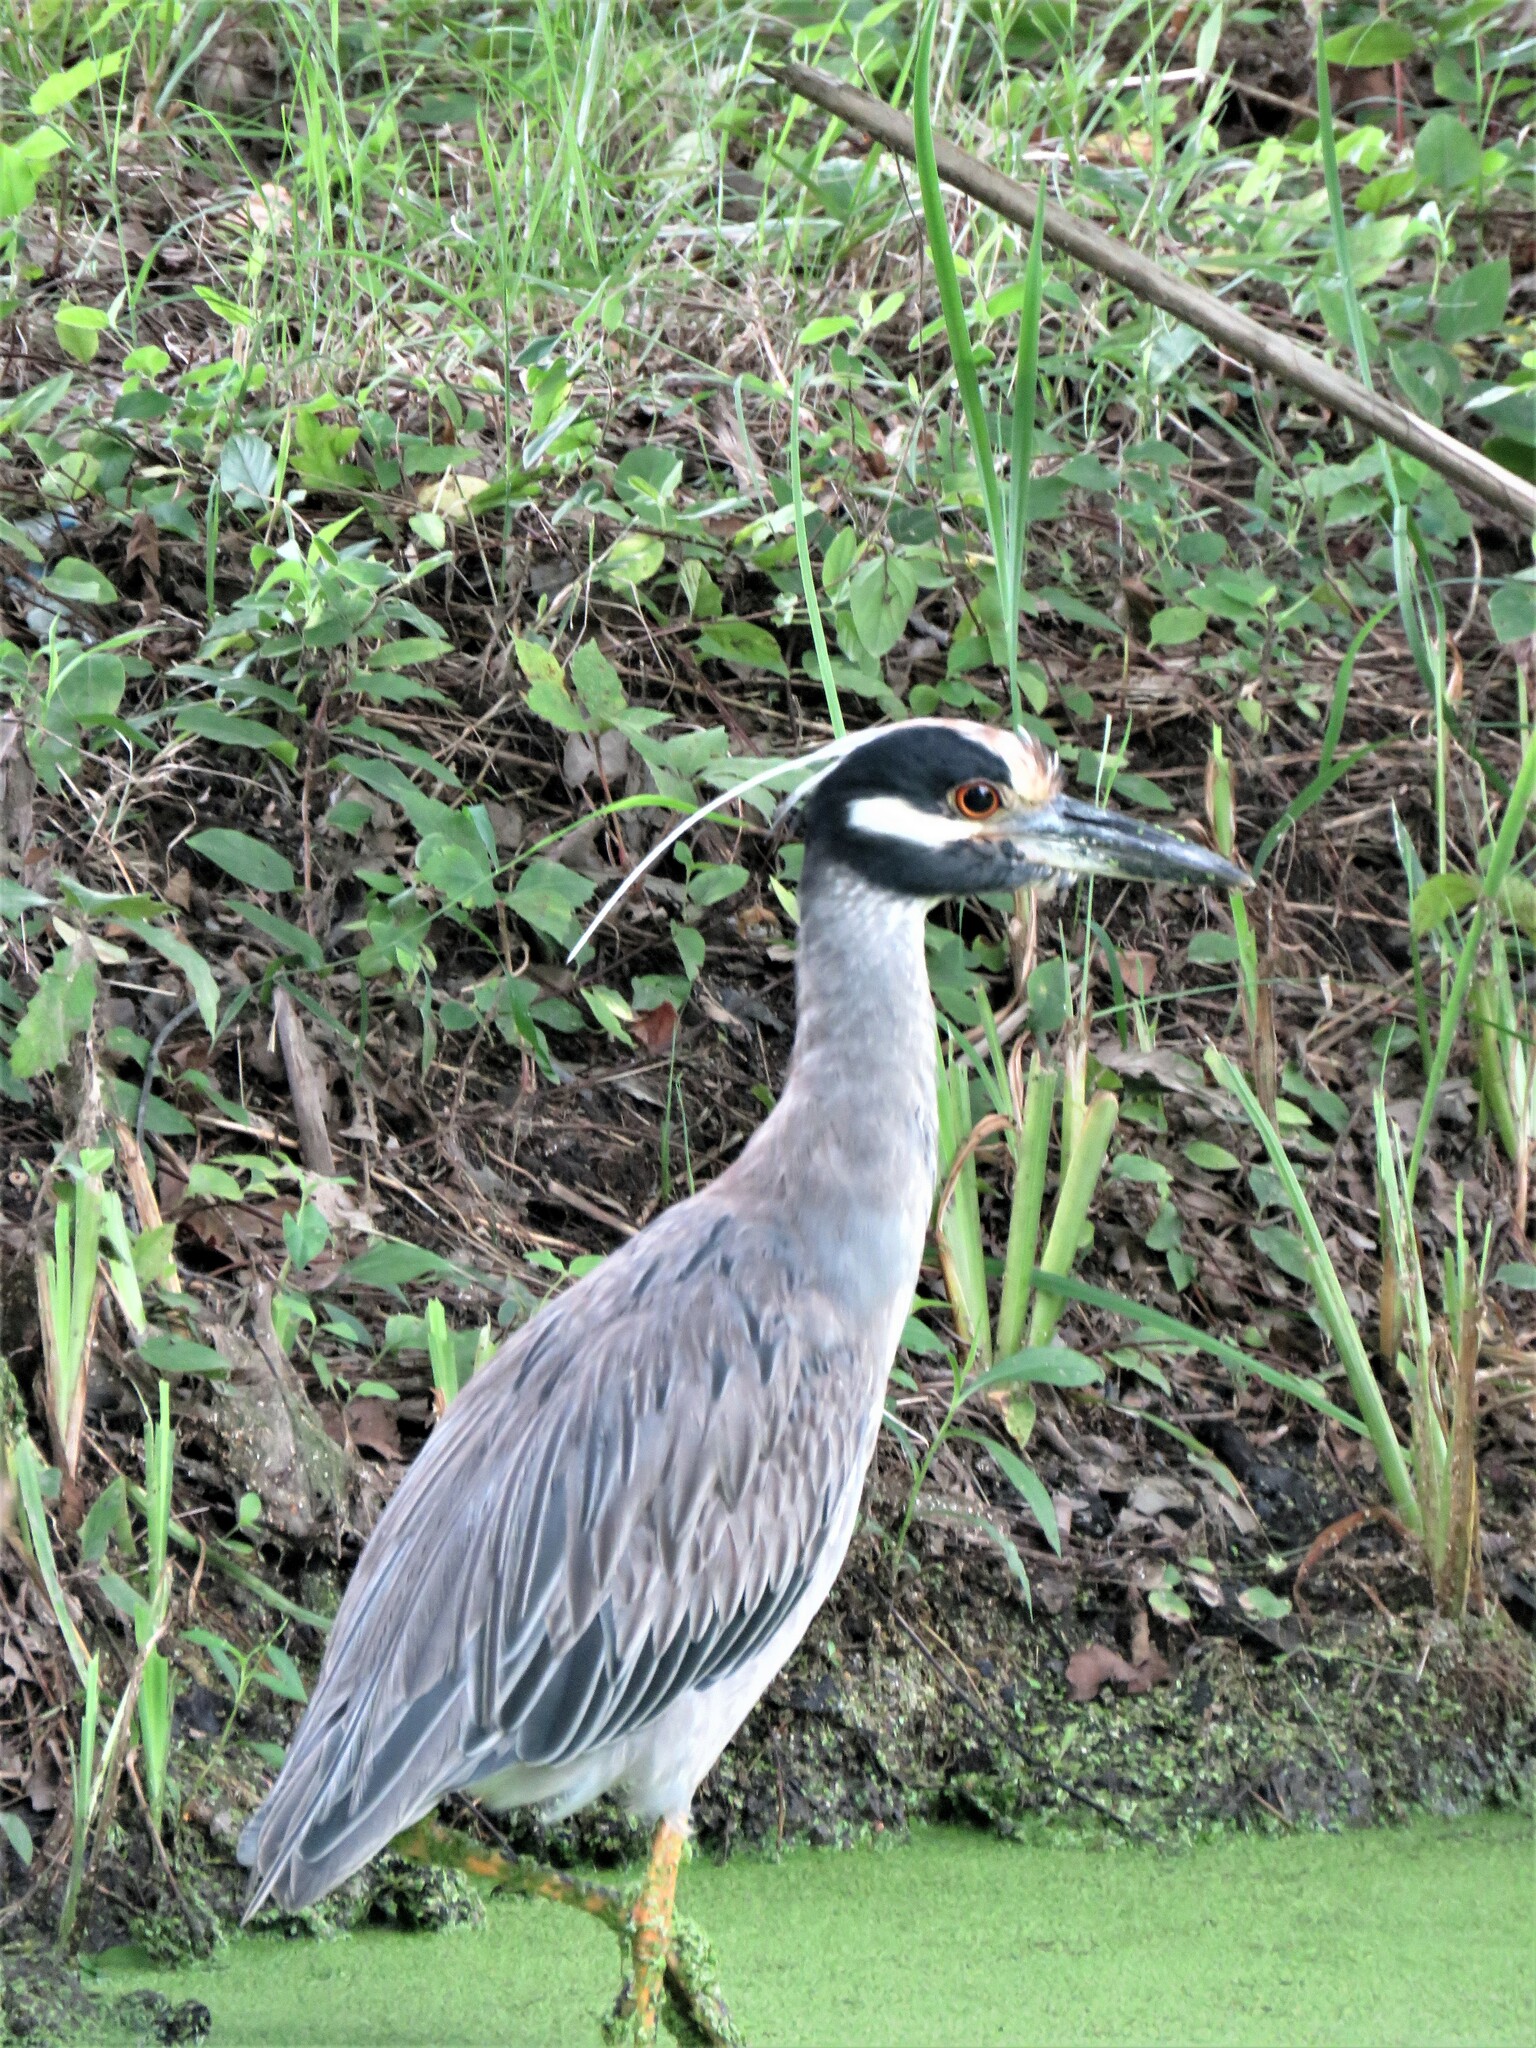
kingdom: Animalia
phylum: Chordata
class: Aves
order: Pelecaniformes
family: Ardeidae
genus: Nyctanassa
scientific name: Nyctanassa violacea
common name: Yellow-crowned night heron
